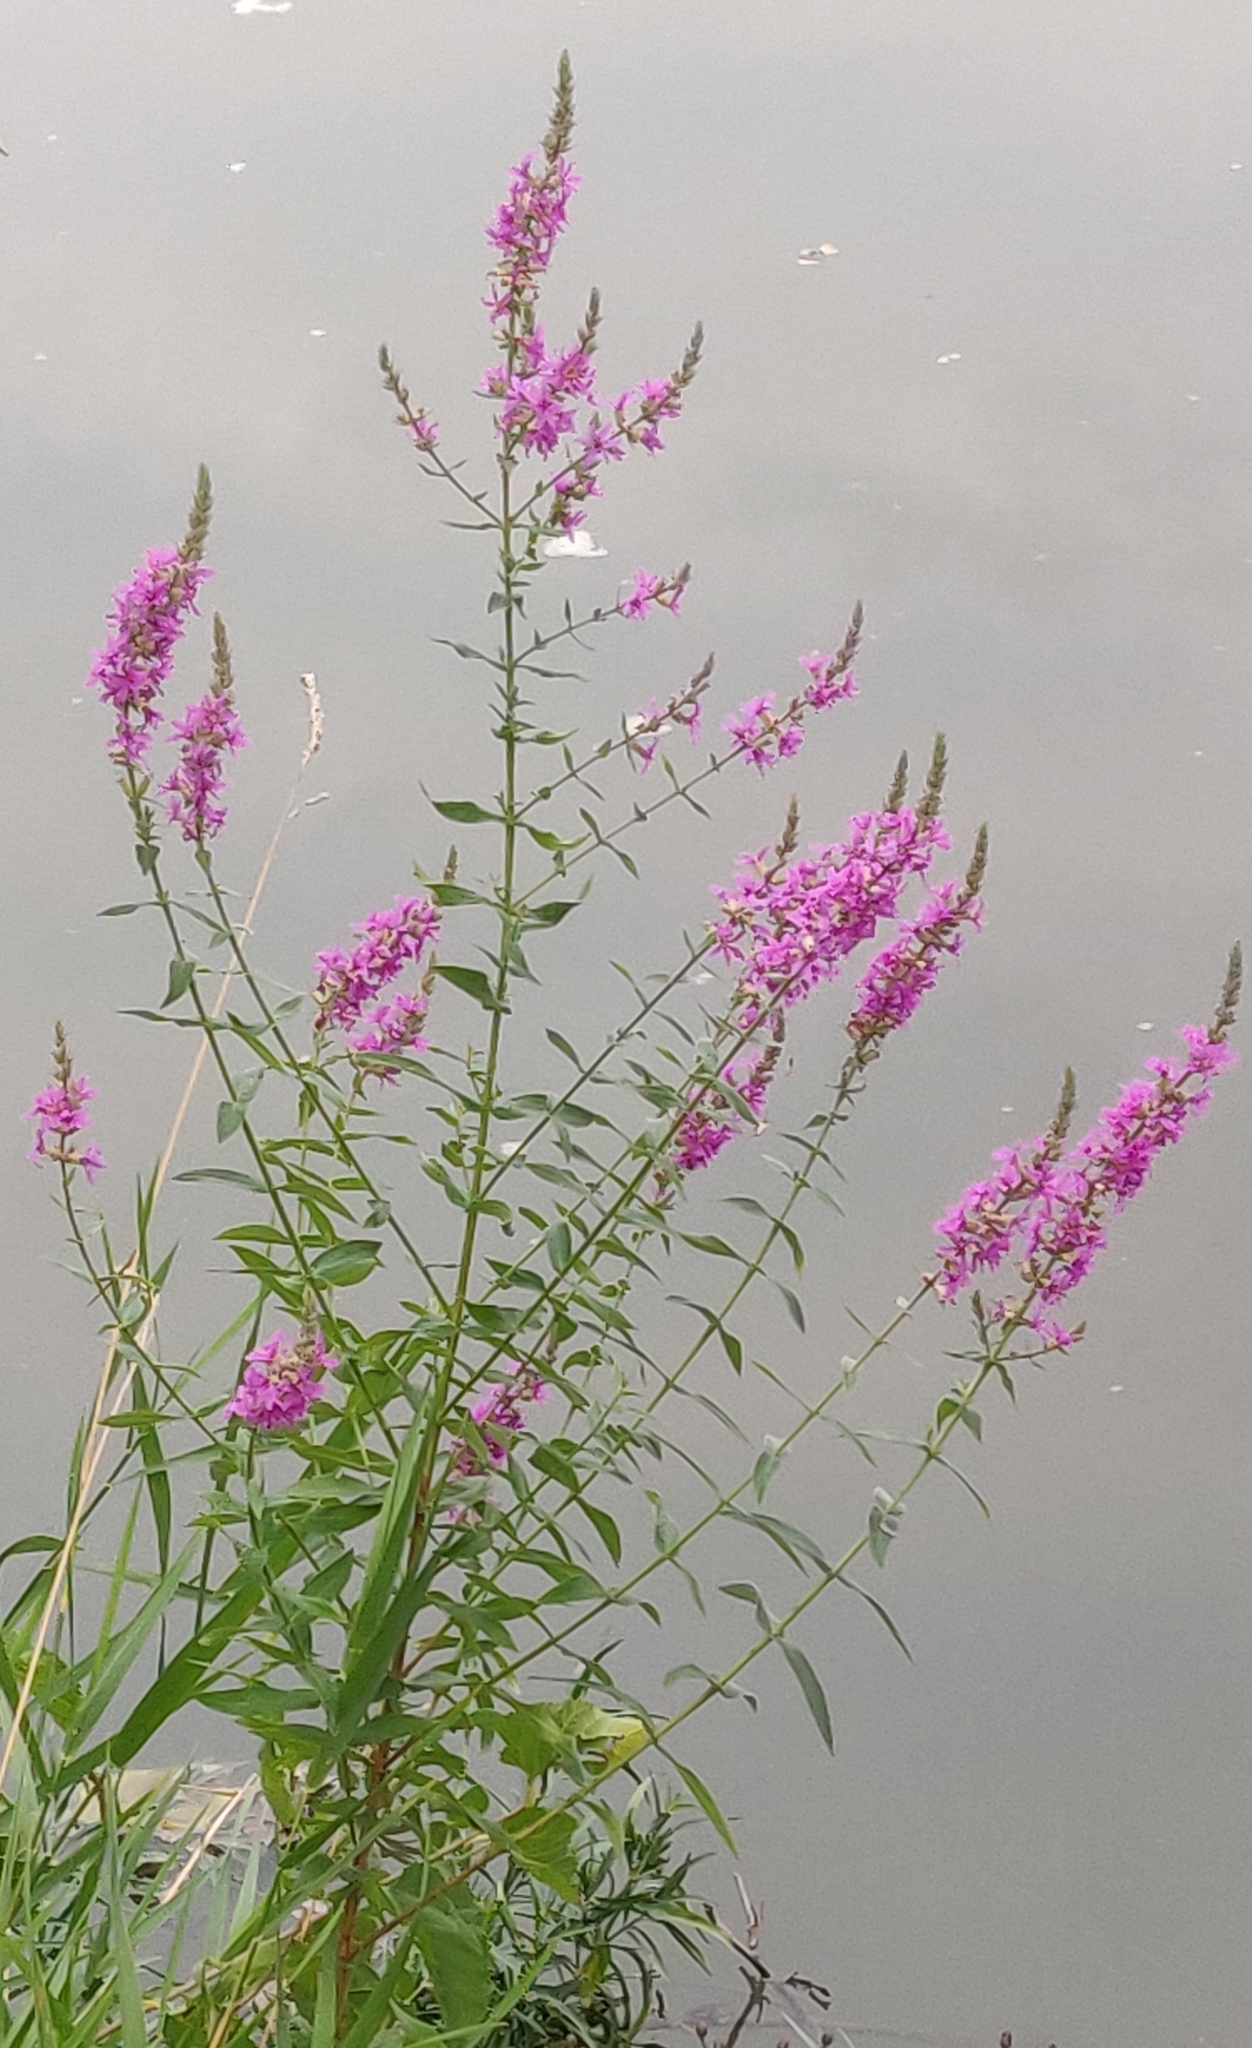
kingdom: Plantae
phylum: Tracheophyta
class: Magnoliopsida
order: Myrtales
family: Lythraceae
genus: Lythrum
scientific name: Lythrum salicaria
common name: Purple loosestrife
